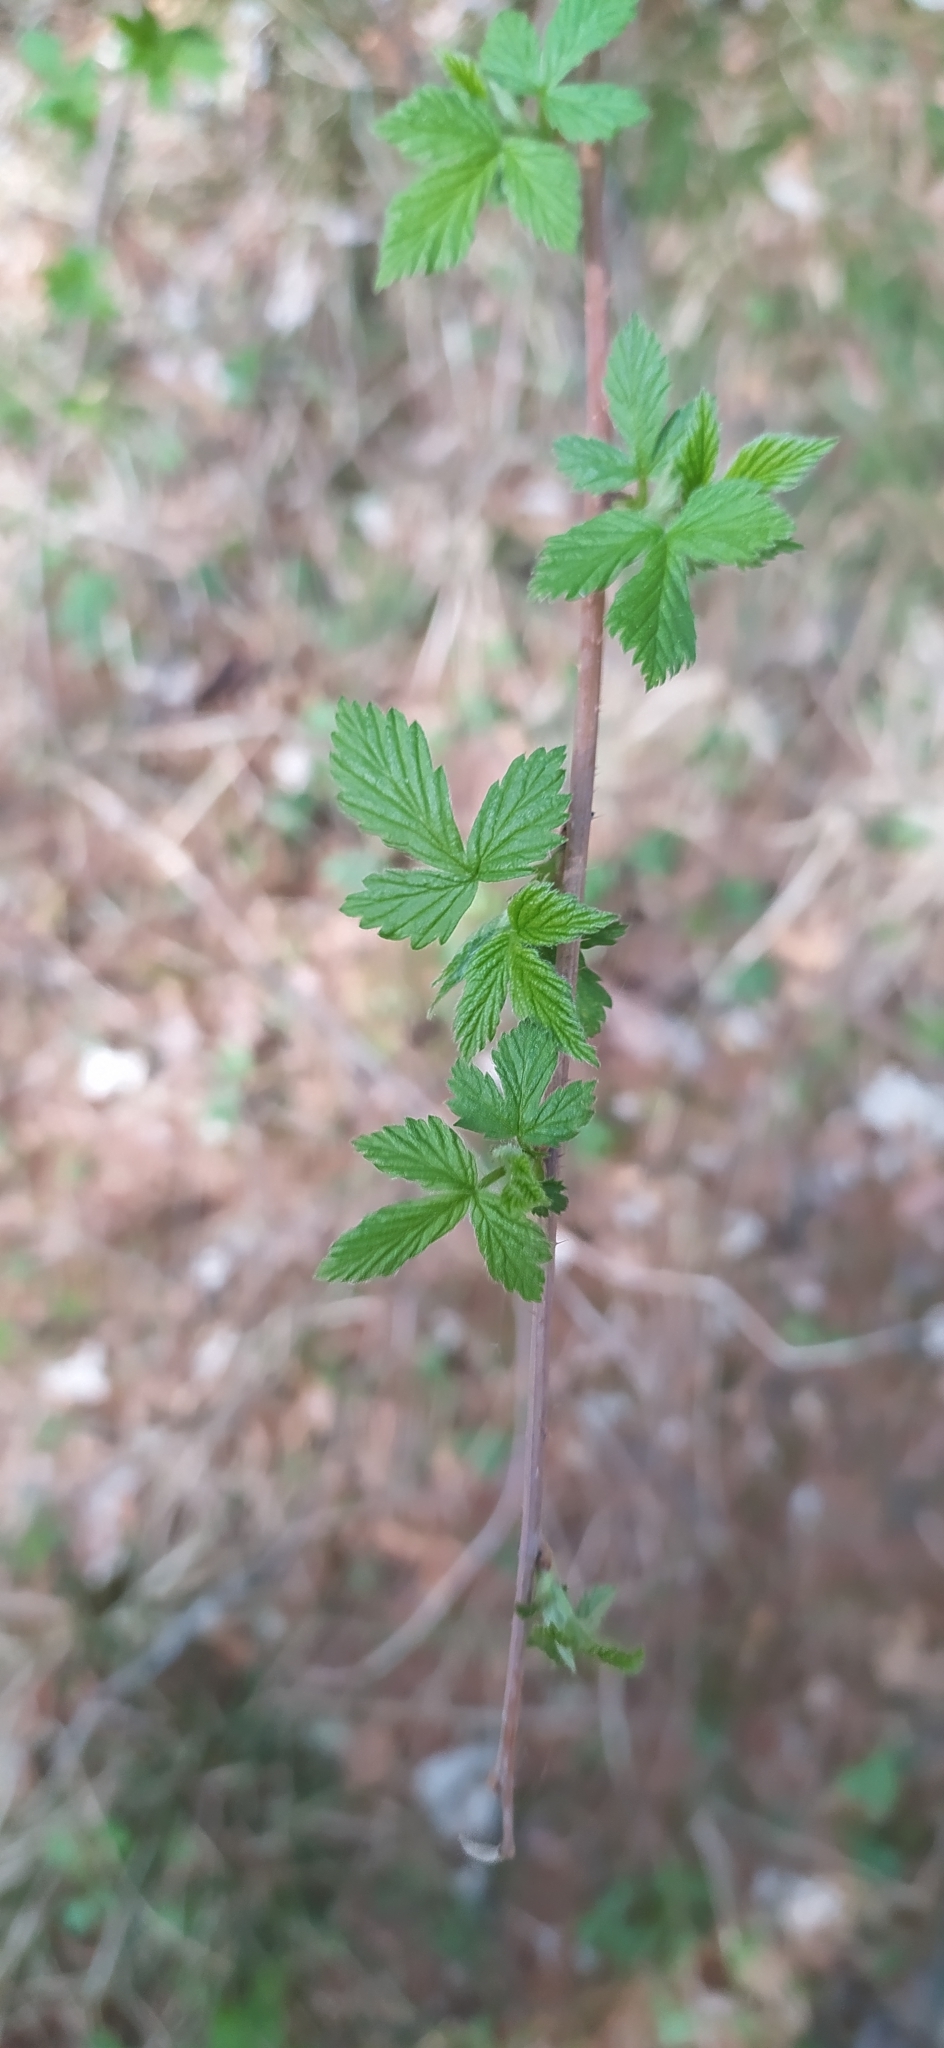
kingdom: Plantae
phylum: Tracheophyta
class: Magnoliopsida
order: Rosales
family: Rosaceae
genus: Rubus
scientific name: Rubus idaeus
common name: Raspberry
